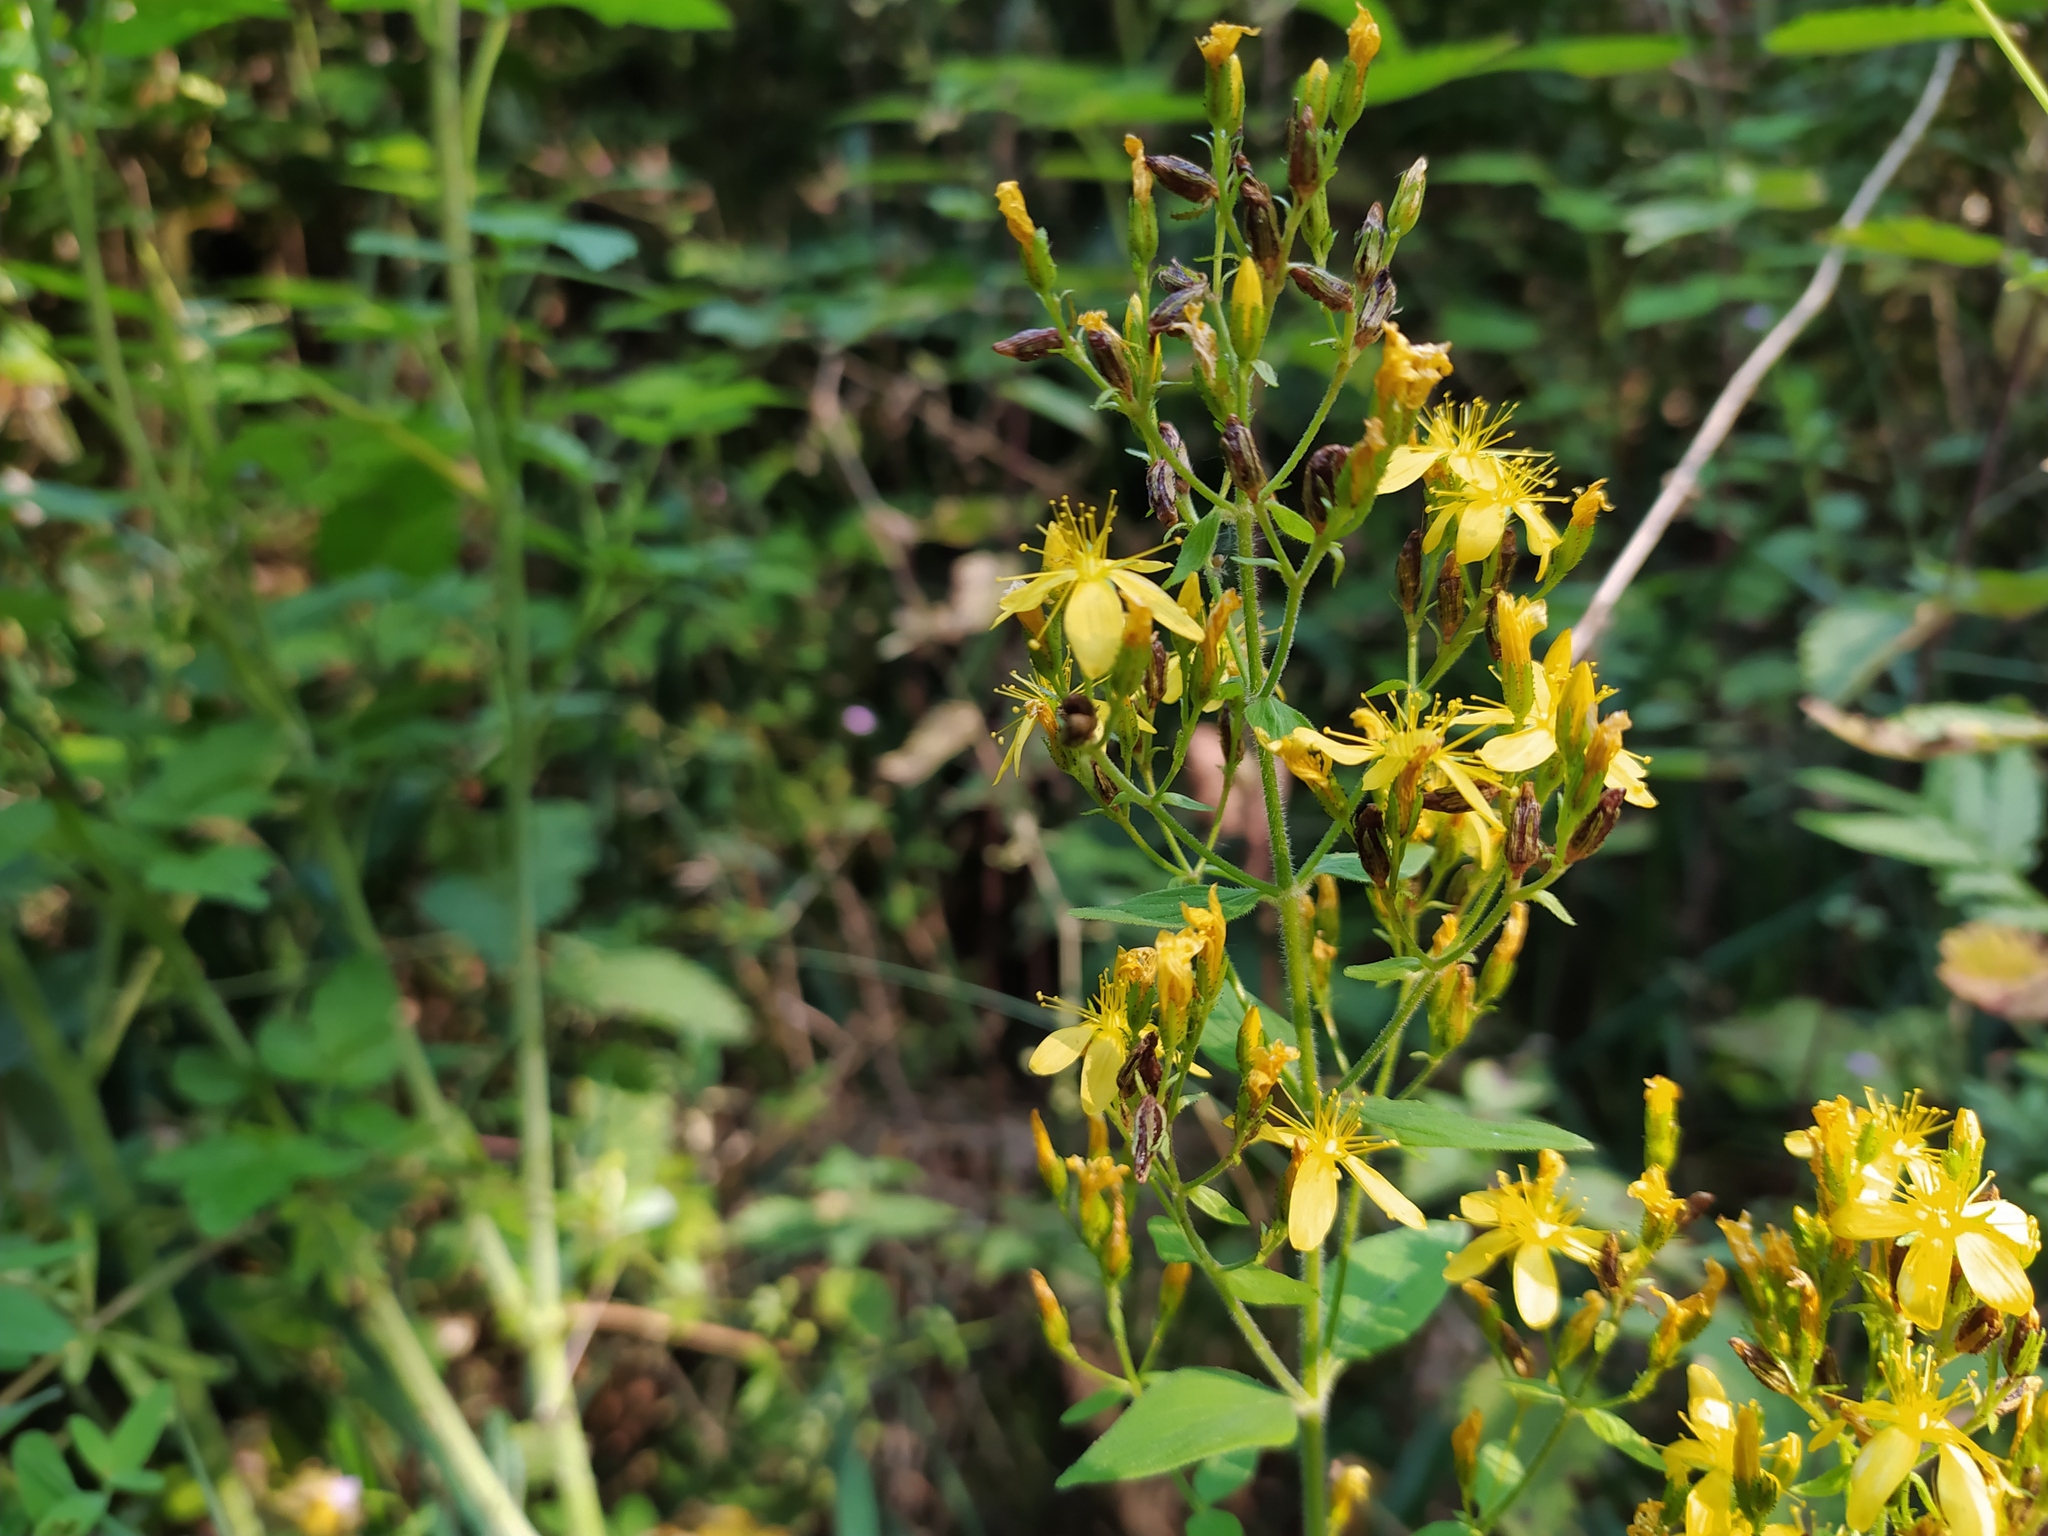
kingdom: Plantae
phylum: Tracheophyta
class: Magnoliopsida
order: Malpighiales
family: Hypericaceae
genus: Hypericum
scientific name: Hypericum hirsutum
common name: Hairy st. john's-wort
